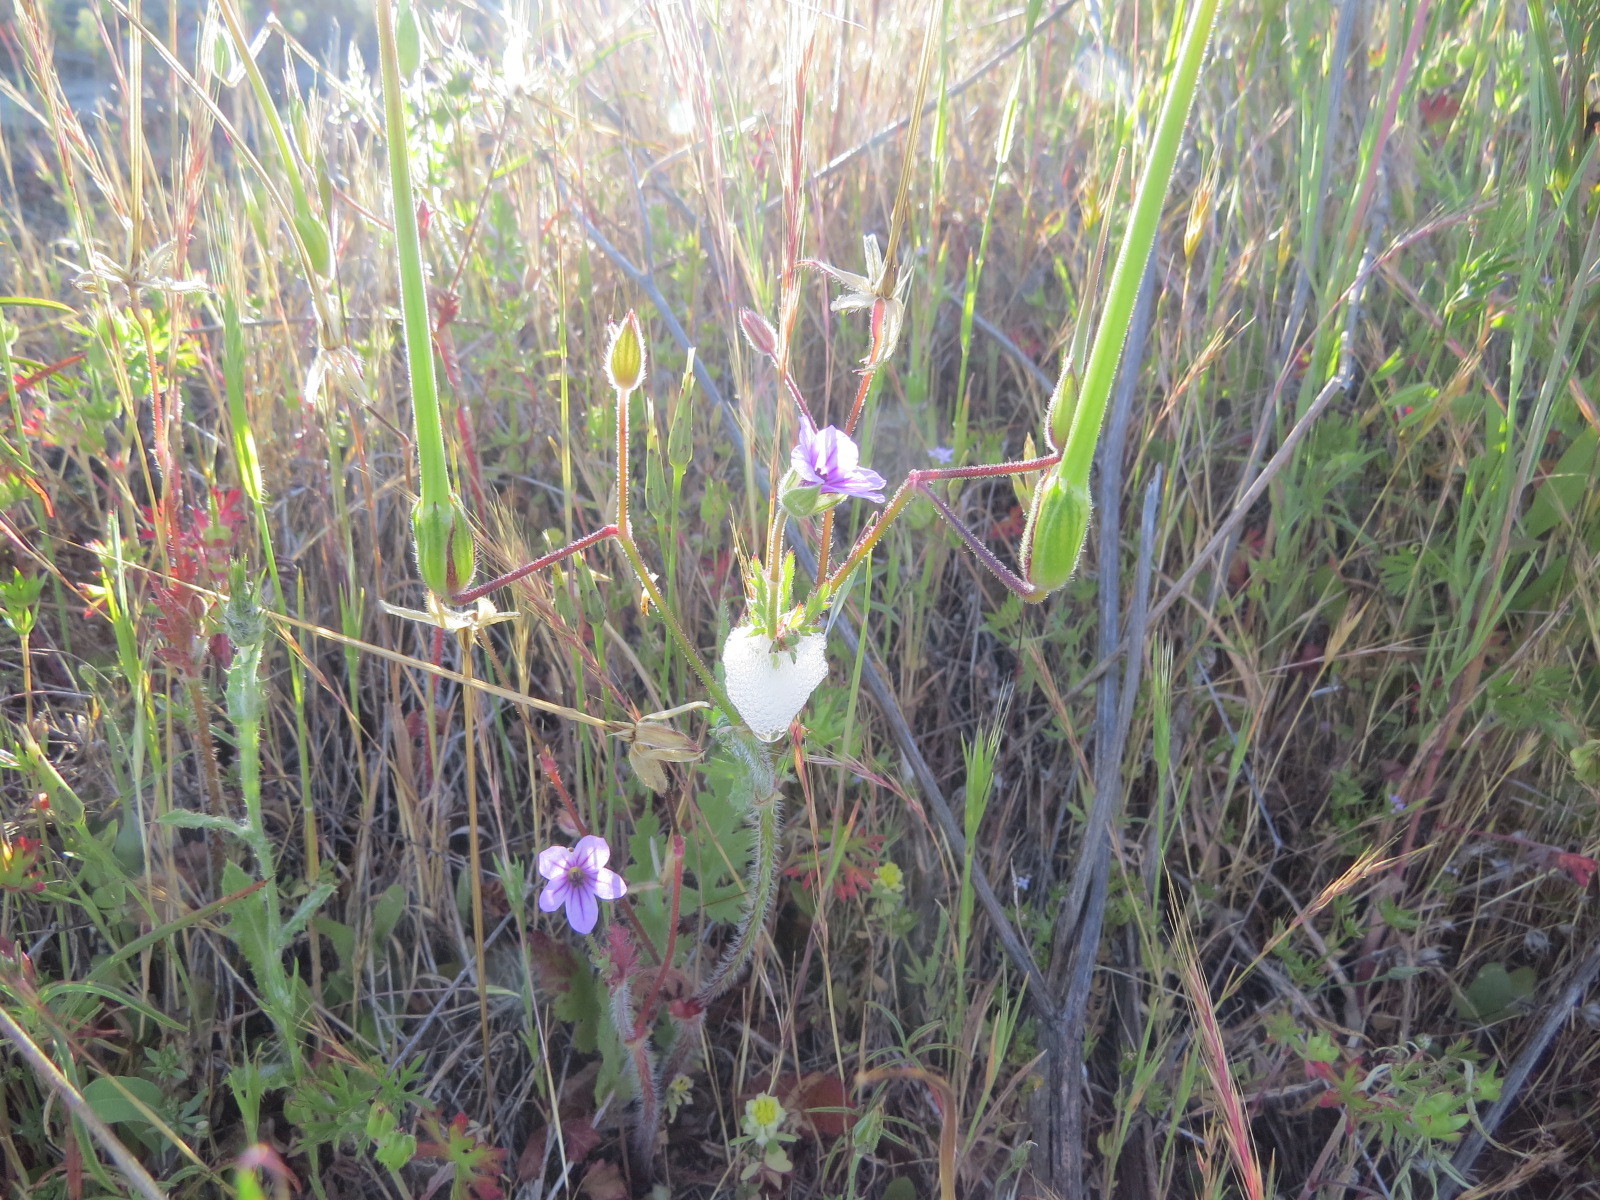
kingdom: Plantae
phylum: Tracheophyta
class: Magnoliopsida
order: Geraniales
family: Geraniaceae
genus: Erodium
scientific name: Erodium botrys
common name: Mediterranean stork's-bill
